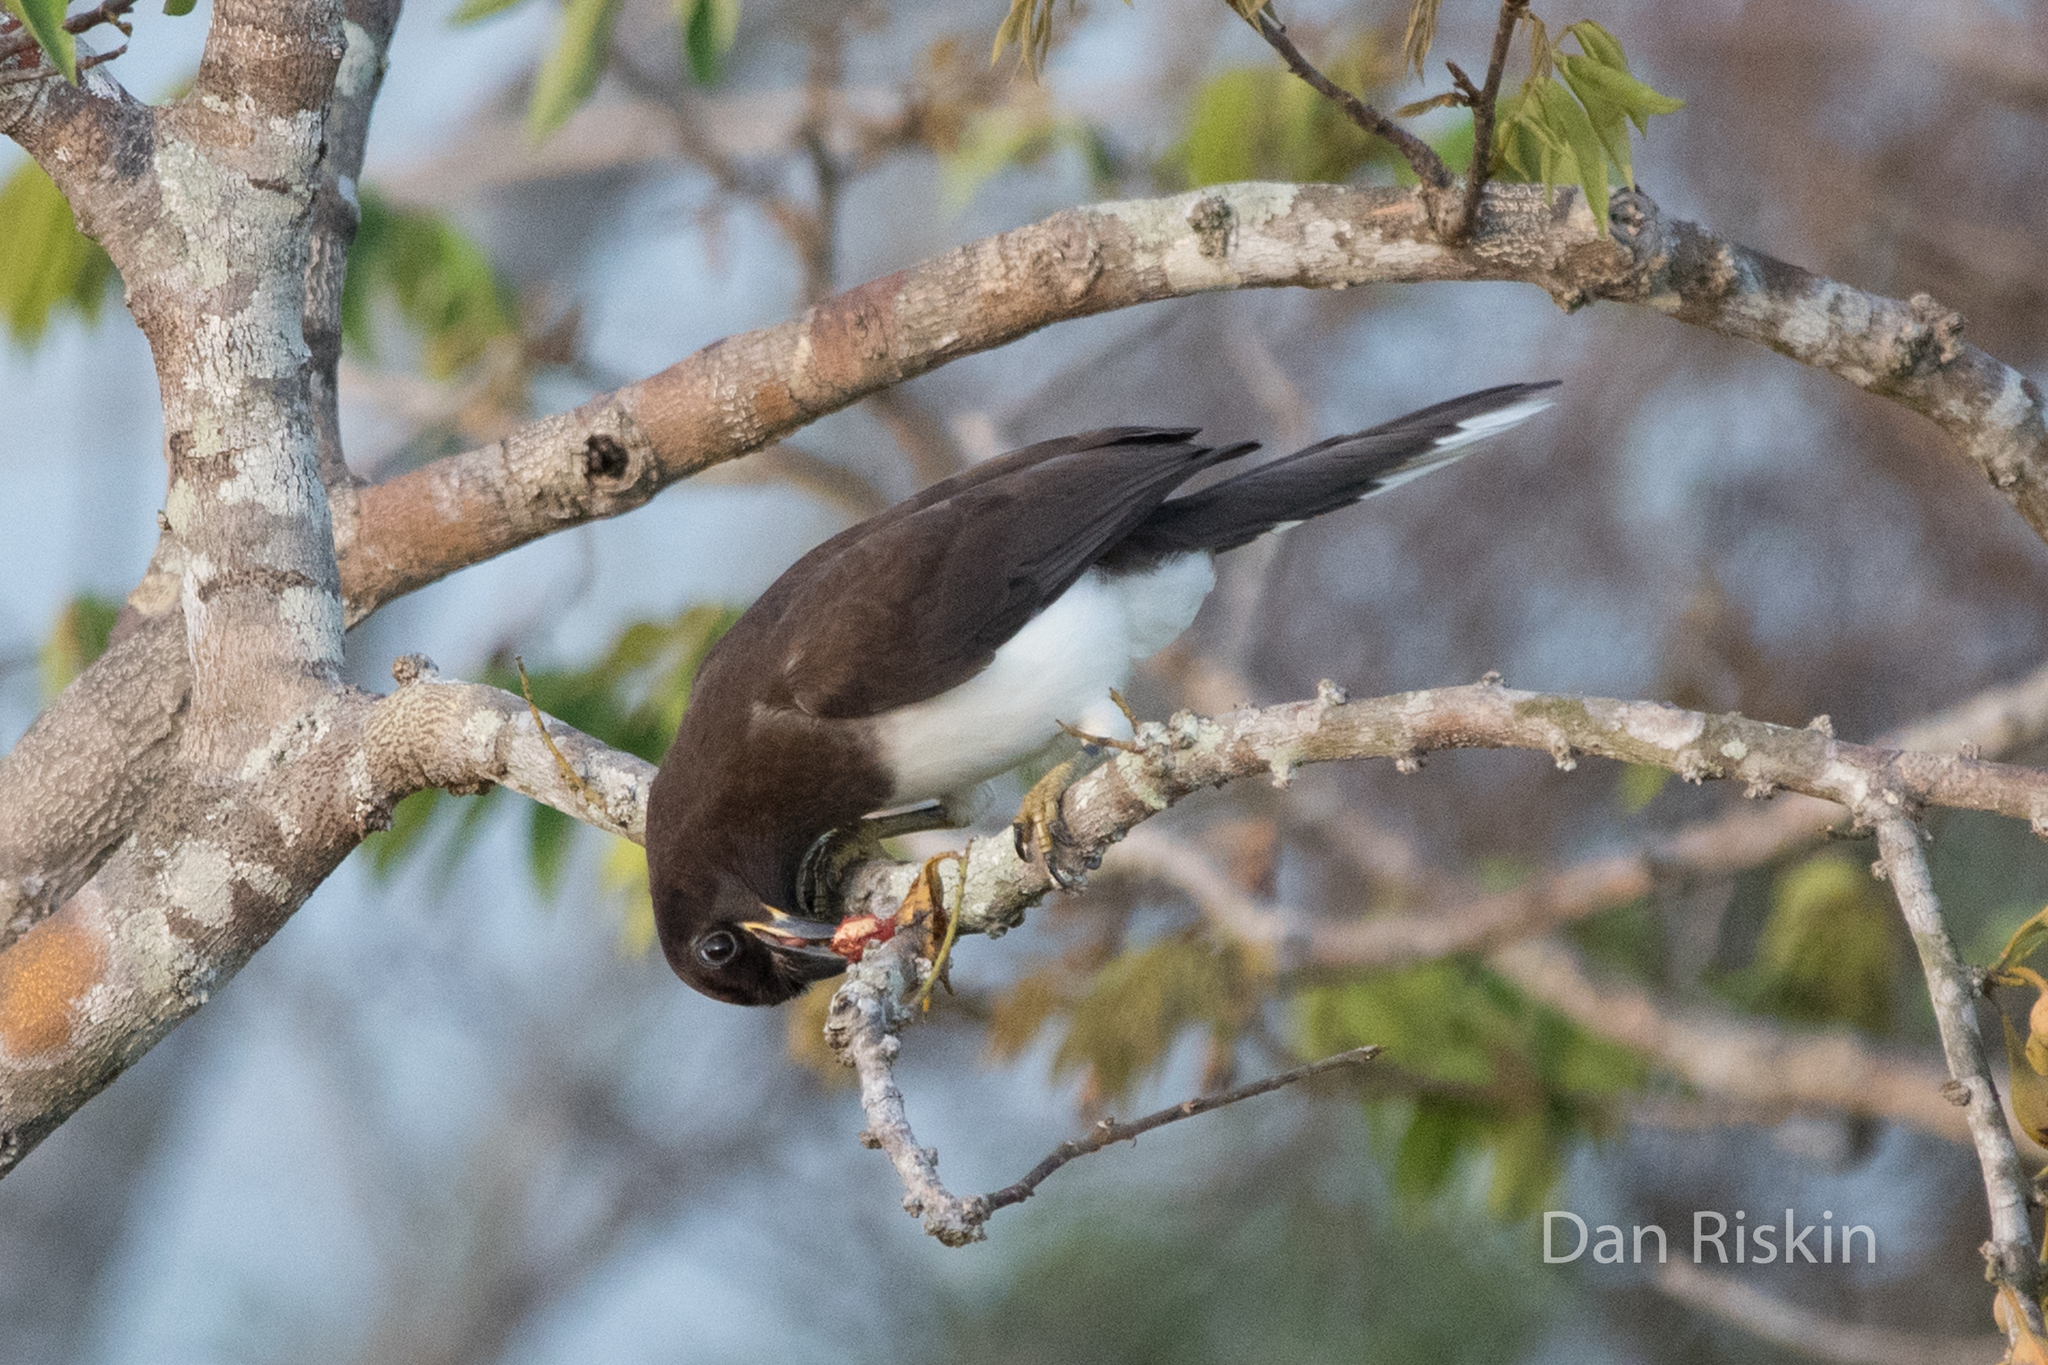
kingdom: Animalia
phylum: Chordata
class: Aves
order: Passeriformes
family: Corvidae
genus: Psilorhinus
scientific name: Psilorhinus morio
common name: Brown jay
